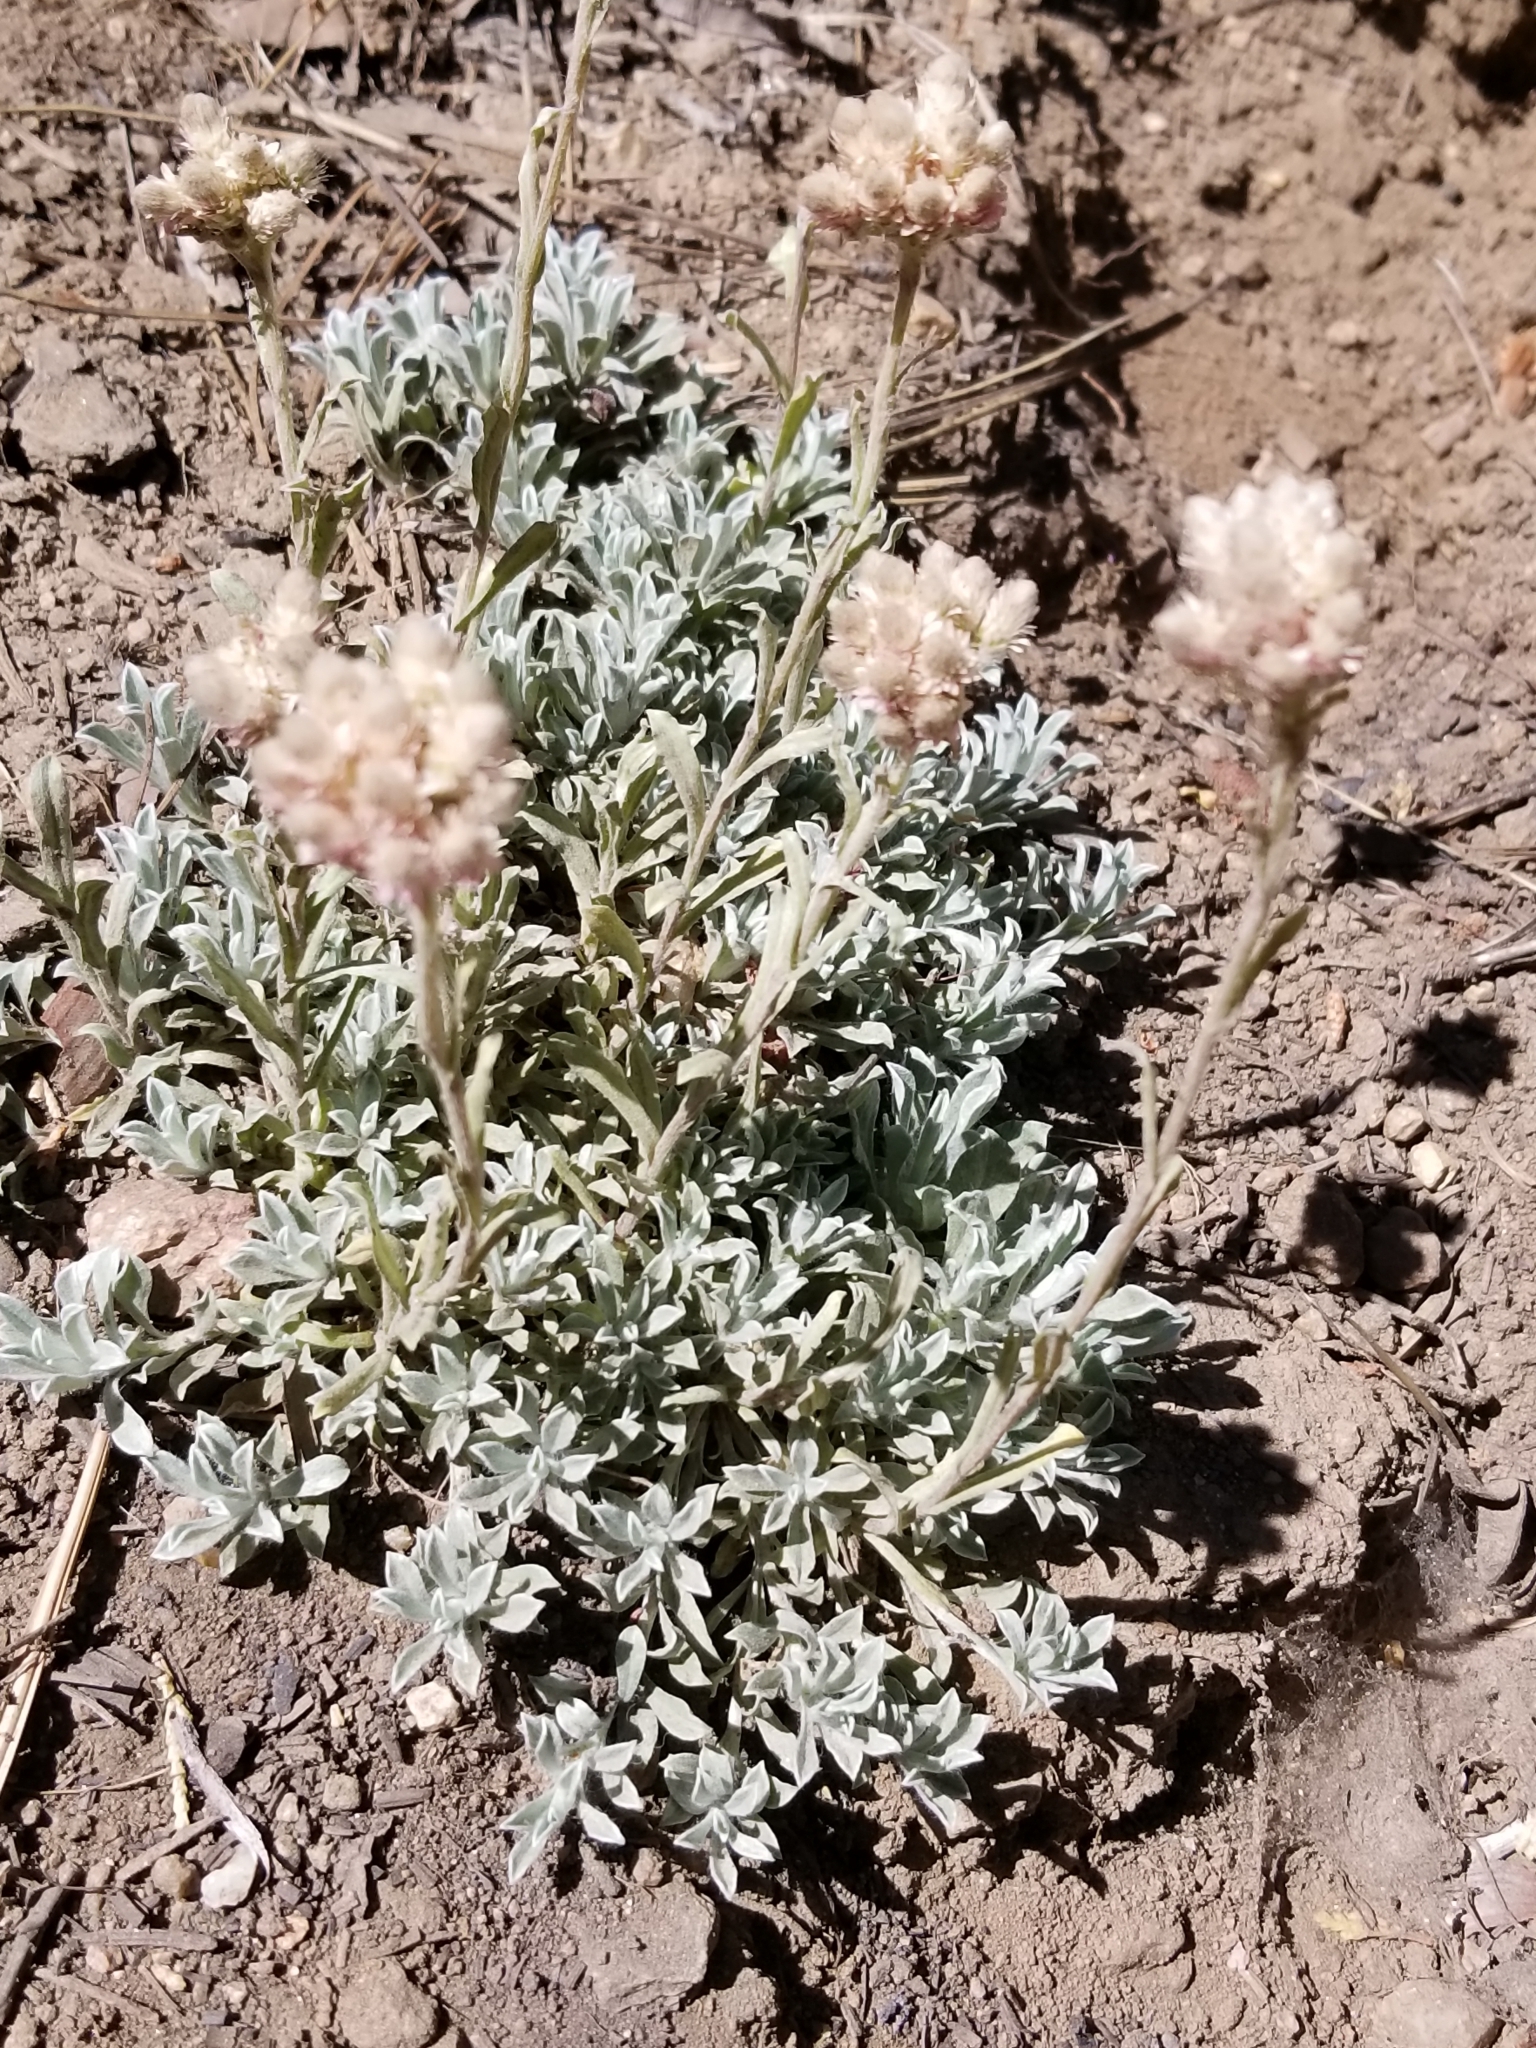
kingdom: Plantae
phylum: Tracheophyta
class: Magnoliopsida
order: Asterales
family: Asteraceae
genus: Antennaria
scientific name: Antennaria rosea
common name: Rosy pussytoes
